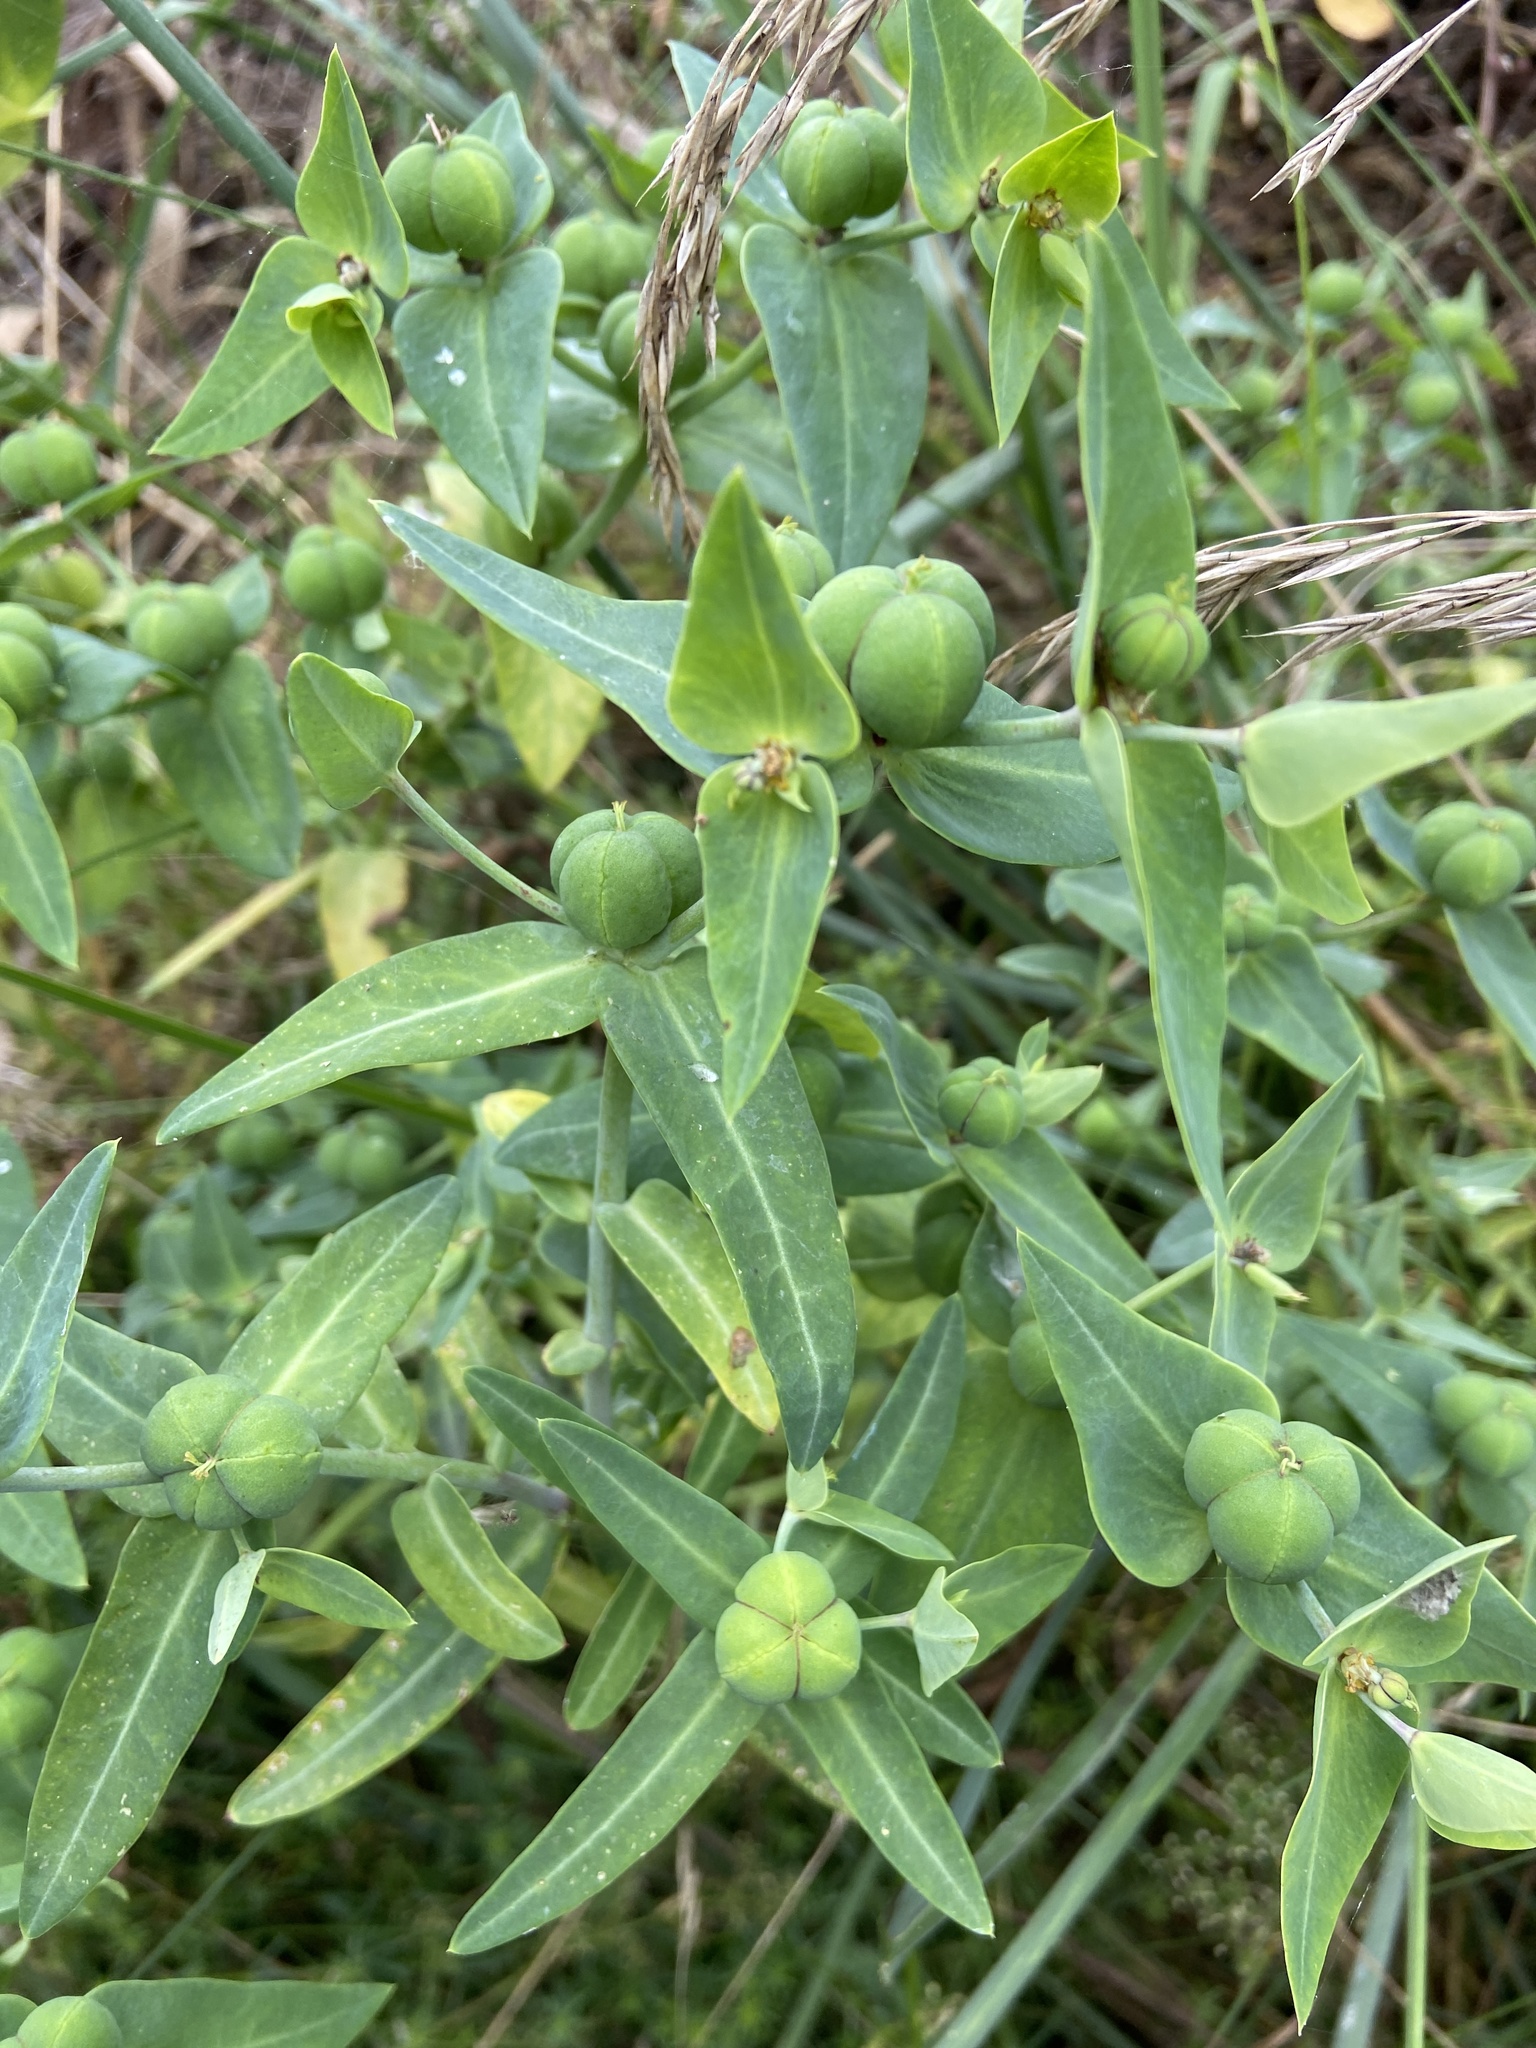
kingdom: Plantae
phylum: Tracheophyta
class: Magnoliopsida
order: Malpighiales
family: Euphorbiaceae
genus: Euphorbia
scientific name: Euphorbia lathyris
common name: Caper spurge
